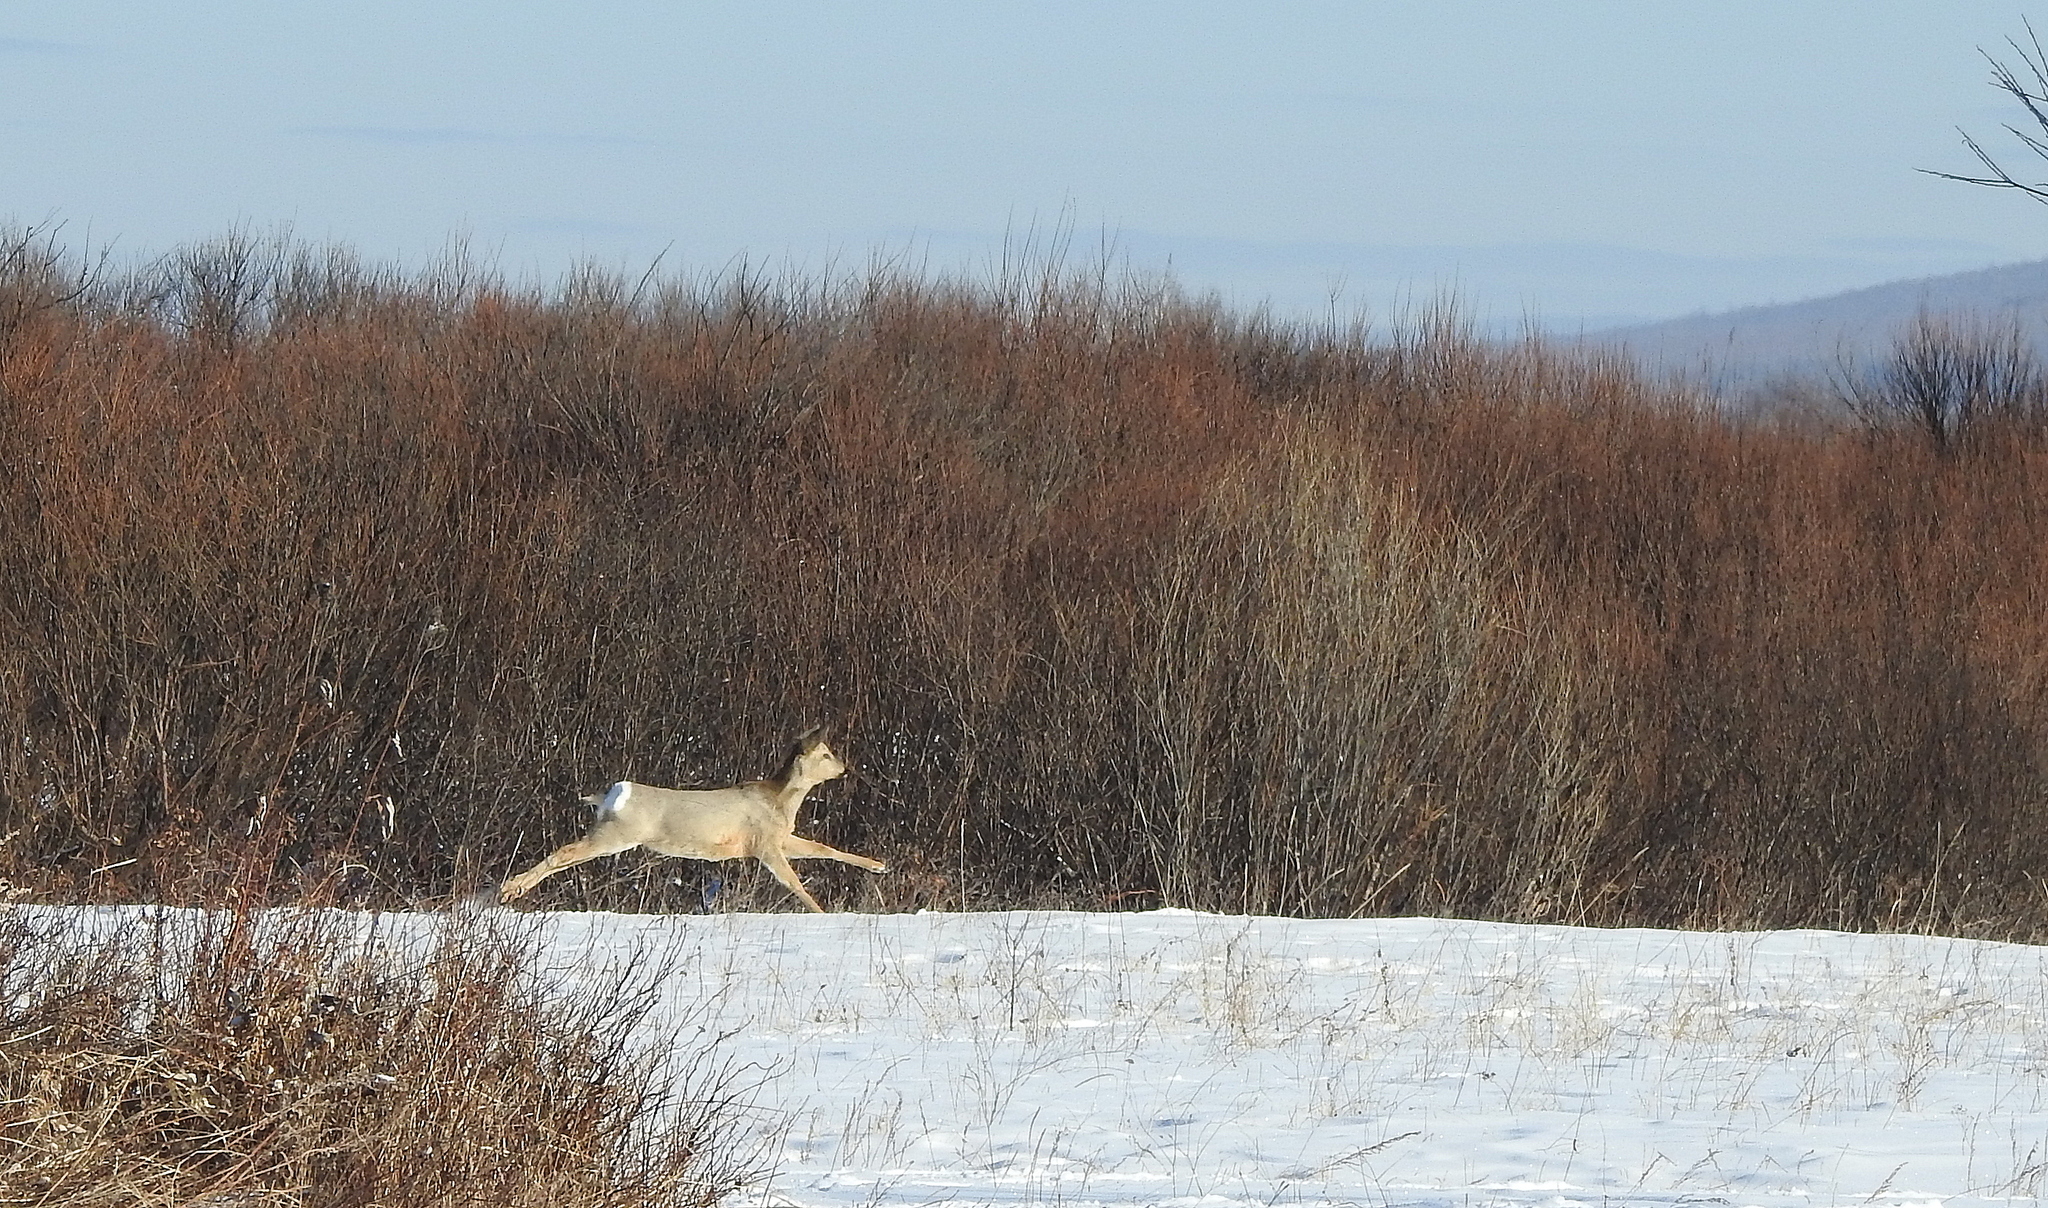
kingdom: Animalia
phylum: Chordata
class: Mammalia
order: Artiodactyla
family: Cervidae
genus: Capreolus
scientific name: Capreolus pygargus
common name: Siberian roe
